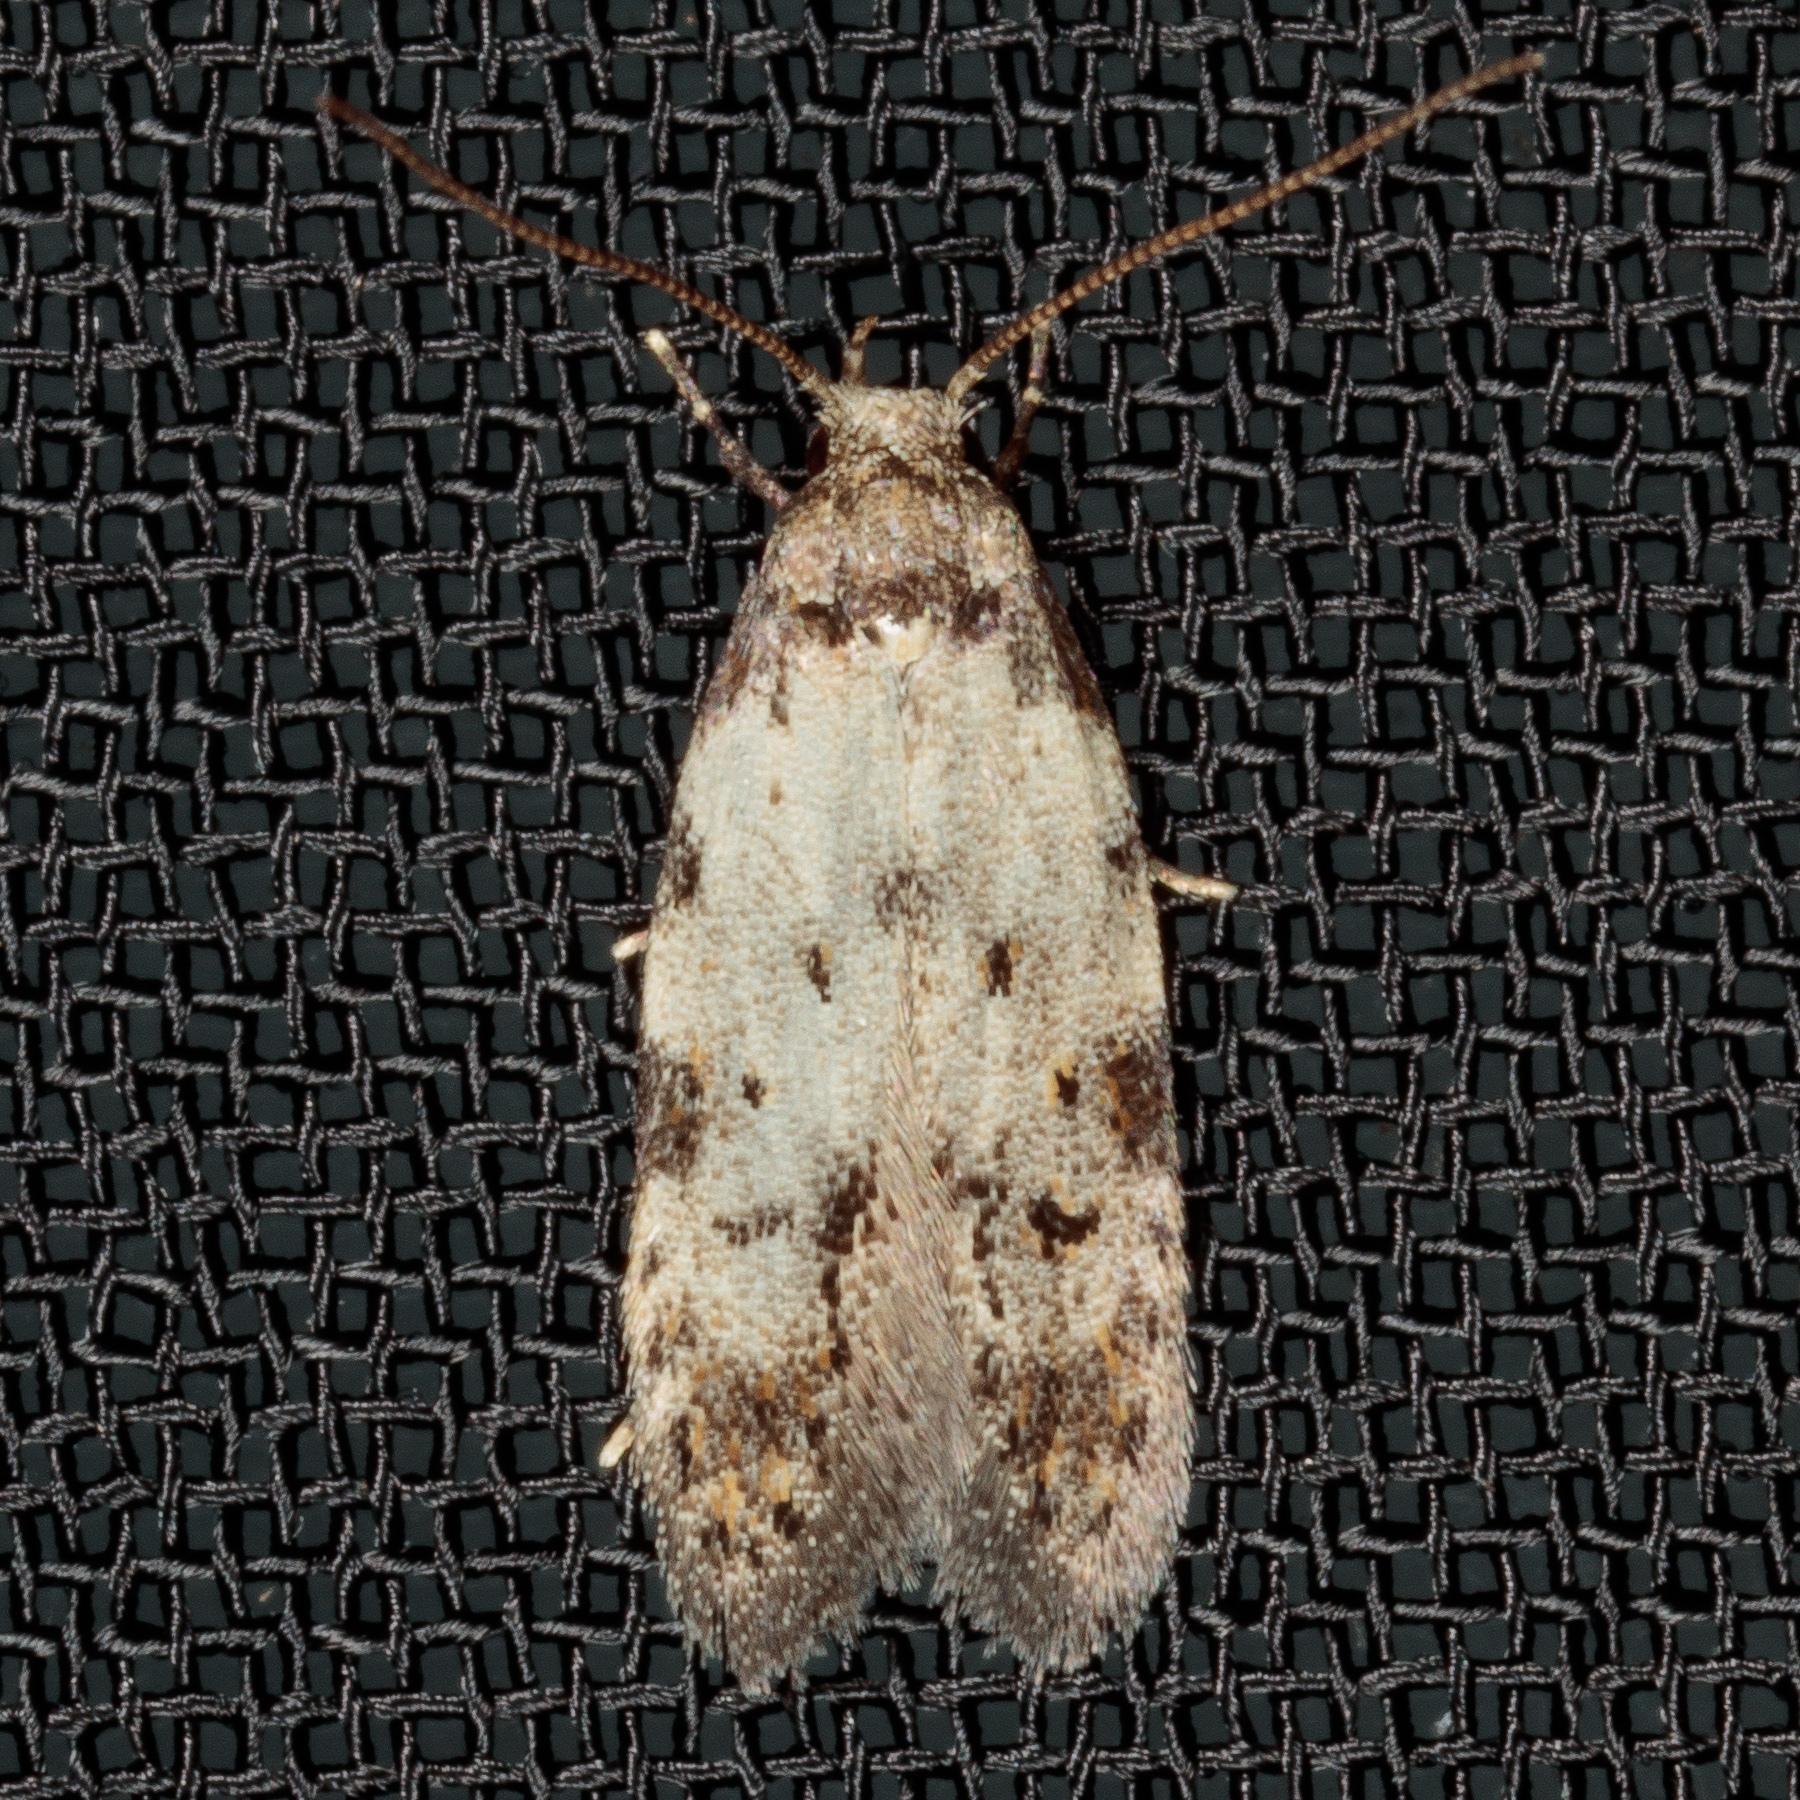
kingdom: Animalia
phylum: Arthropoda
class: Insecta
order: Lepidoptera
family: Autostichidae
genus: Taygete
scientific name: Taygete attributella
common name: Triangle-marked twirler moth
